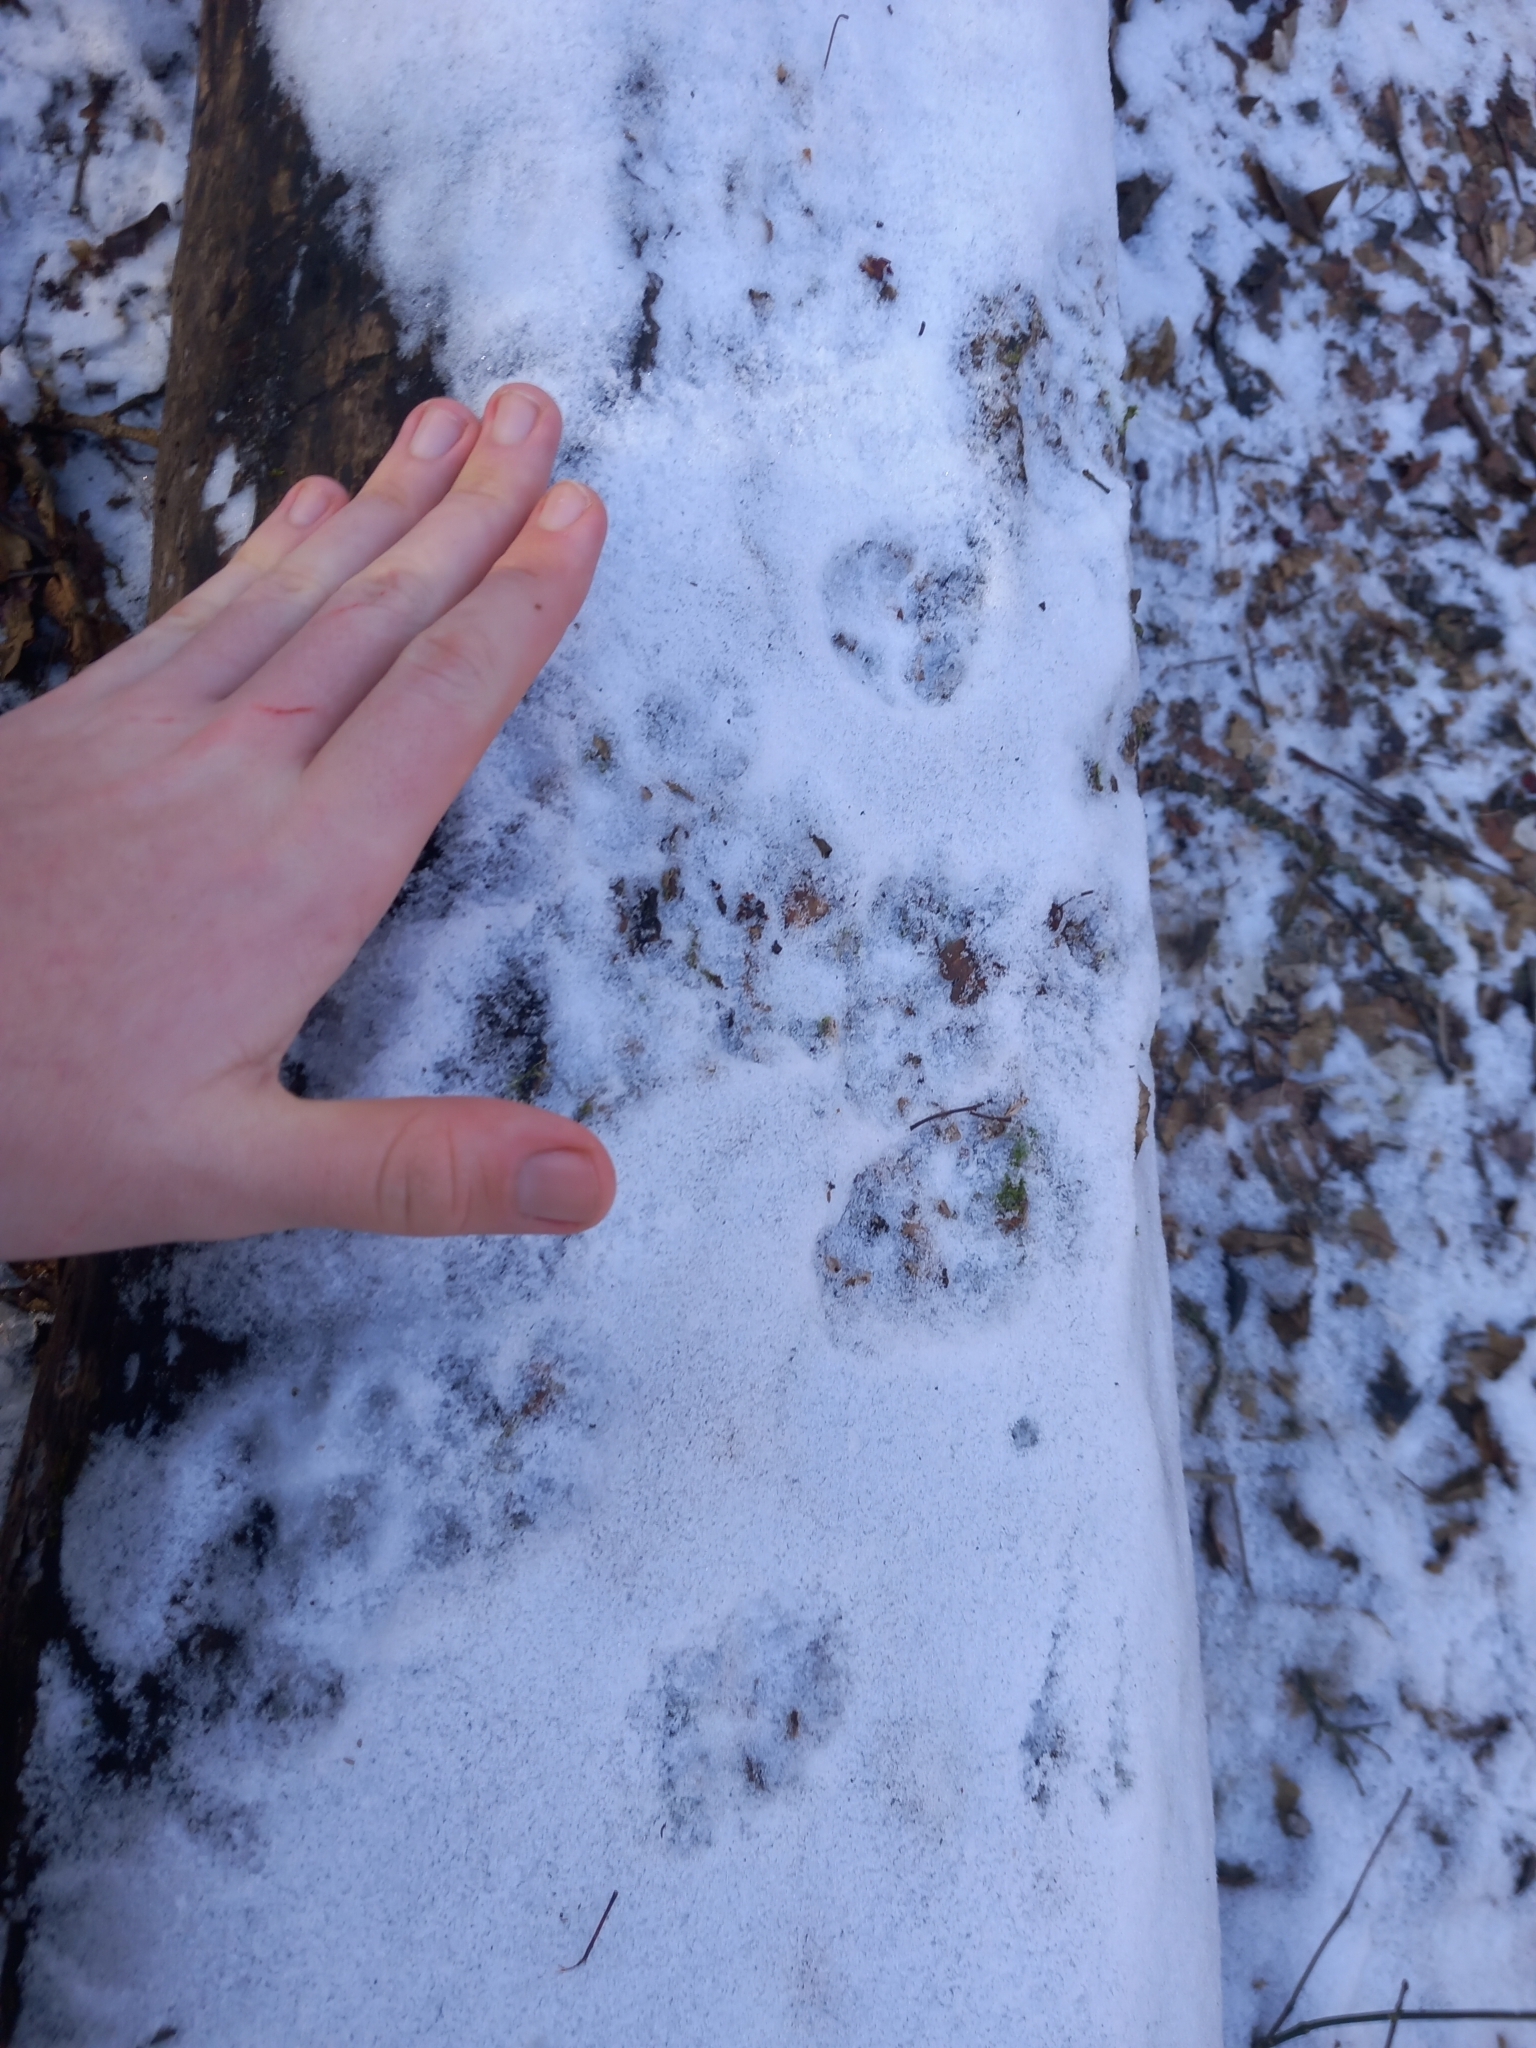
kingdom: Animalia
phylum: Chordata
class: Mammalia
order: Carnivora
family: Canidae
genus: Vulpes
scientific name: Vulpes vulpes
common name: Red fox
